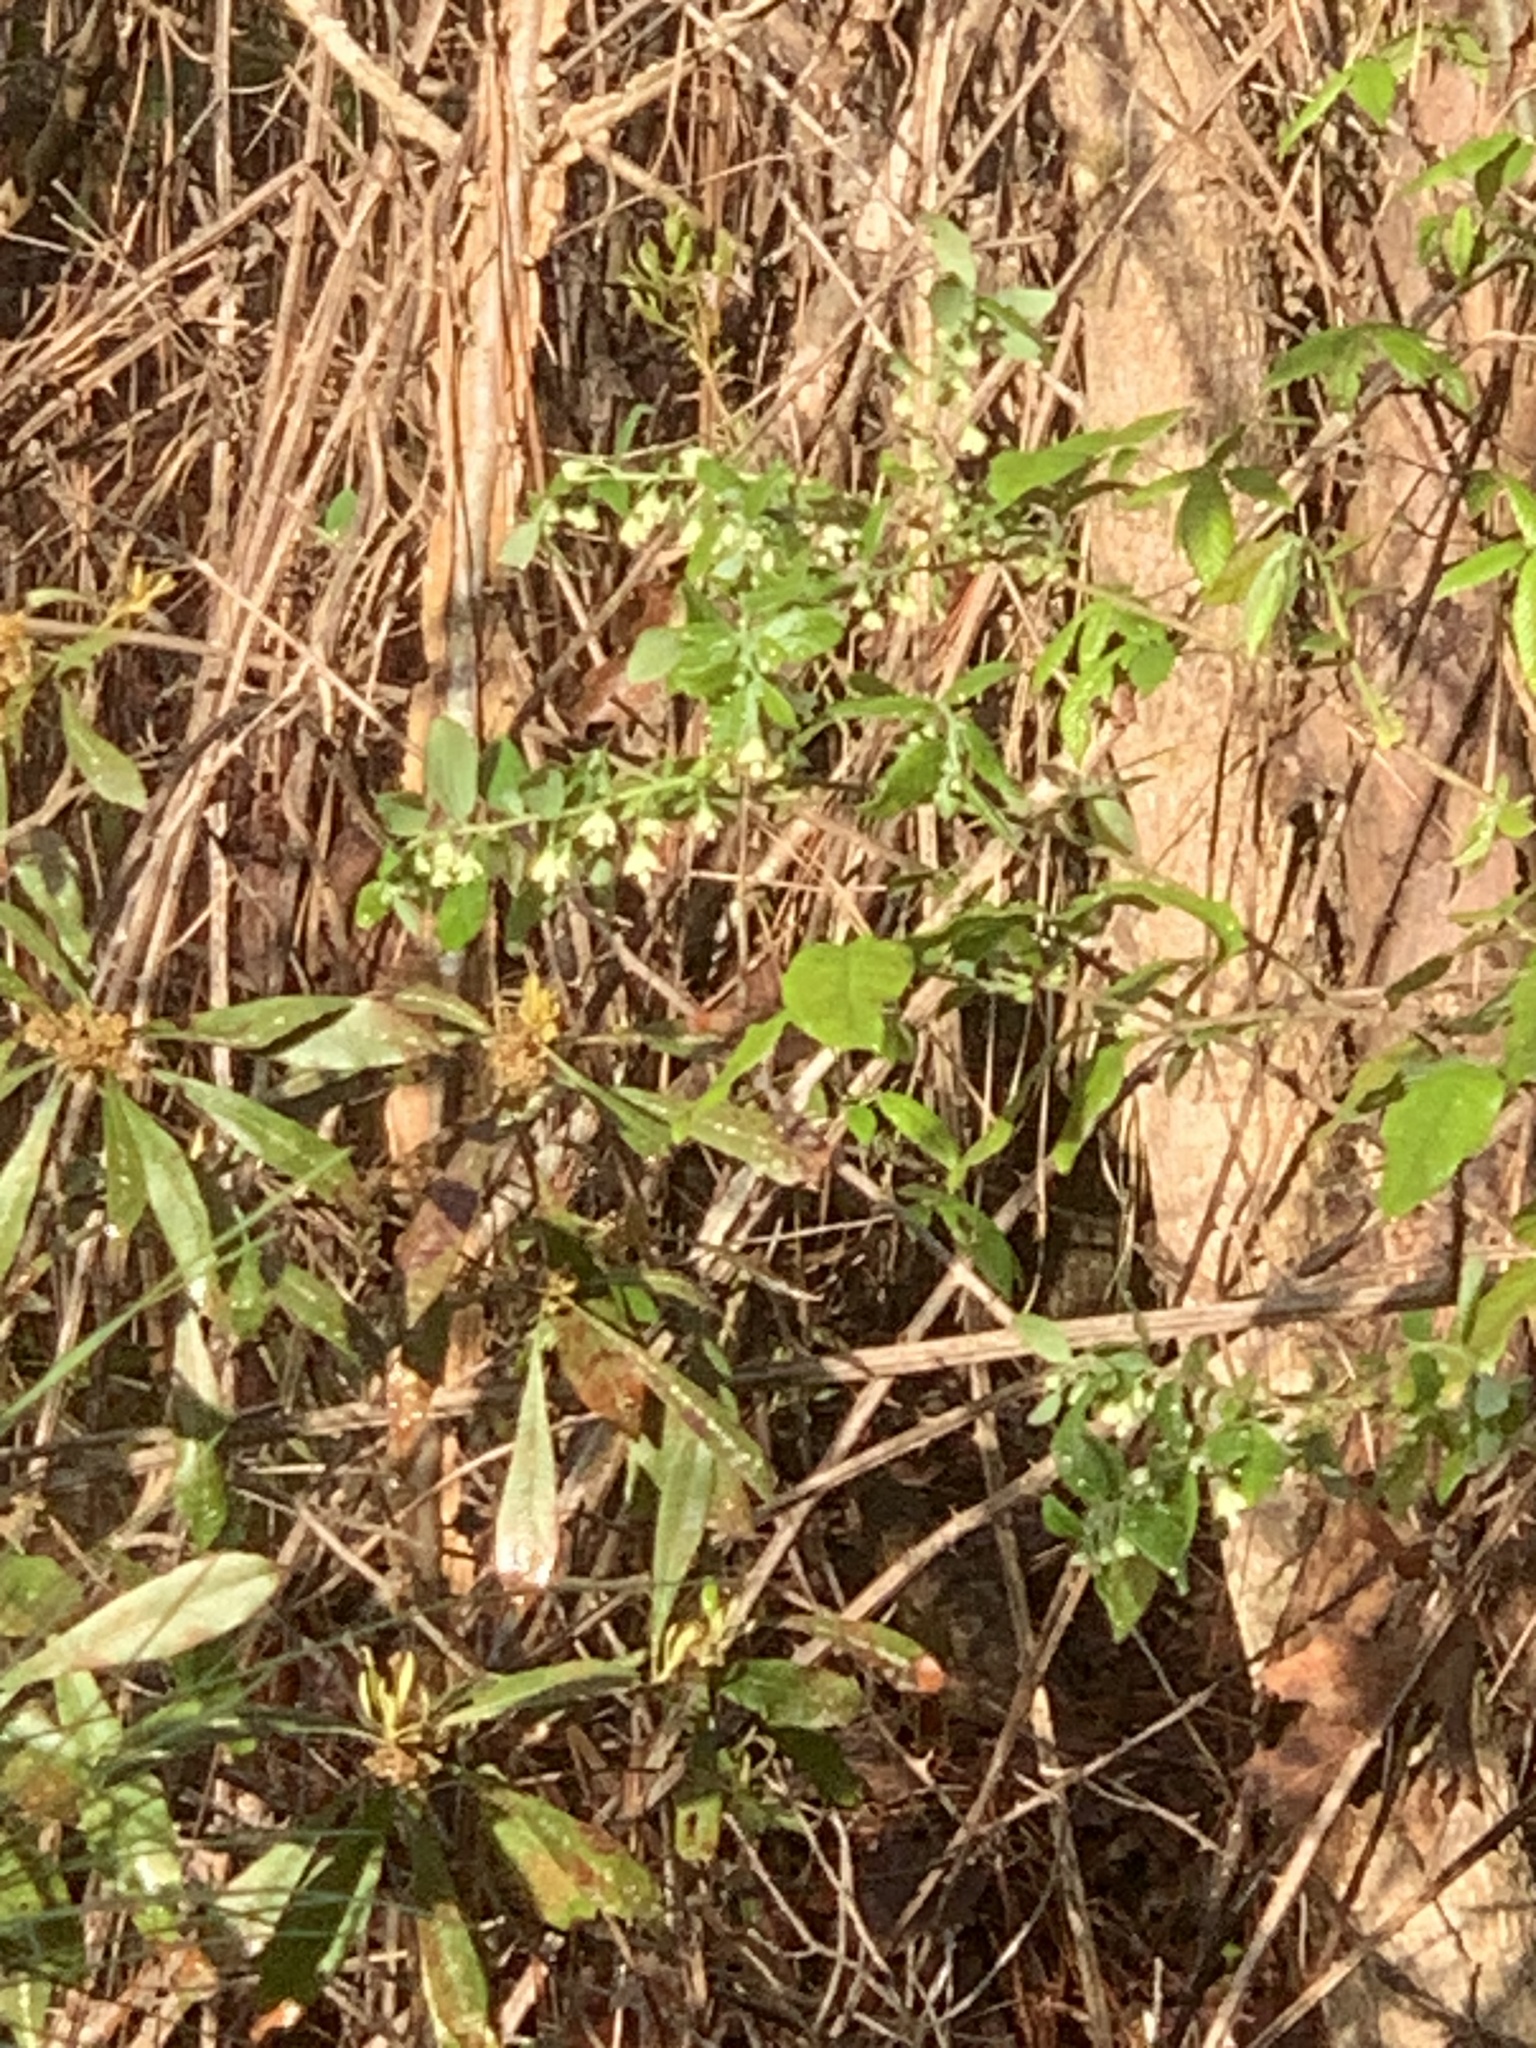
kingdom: Plantae
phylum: Tracheophyta
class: Magnoliopsida
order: Ericales
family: Ericaceae
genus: Vaccinium
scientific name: Vaccinium stamineum
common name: Deerberry
